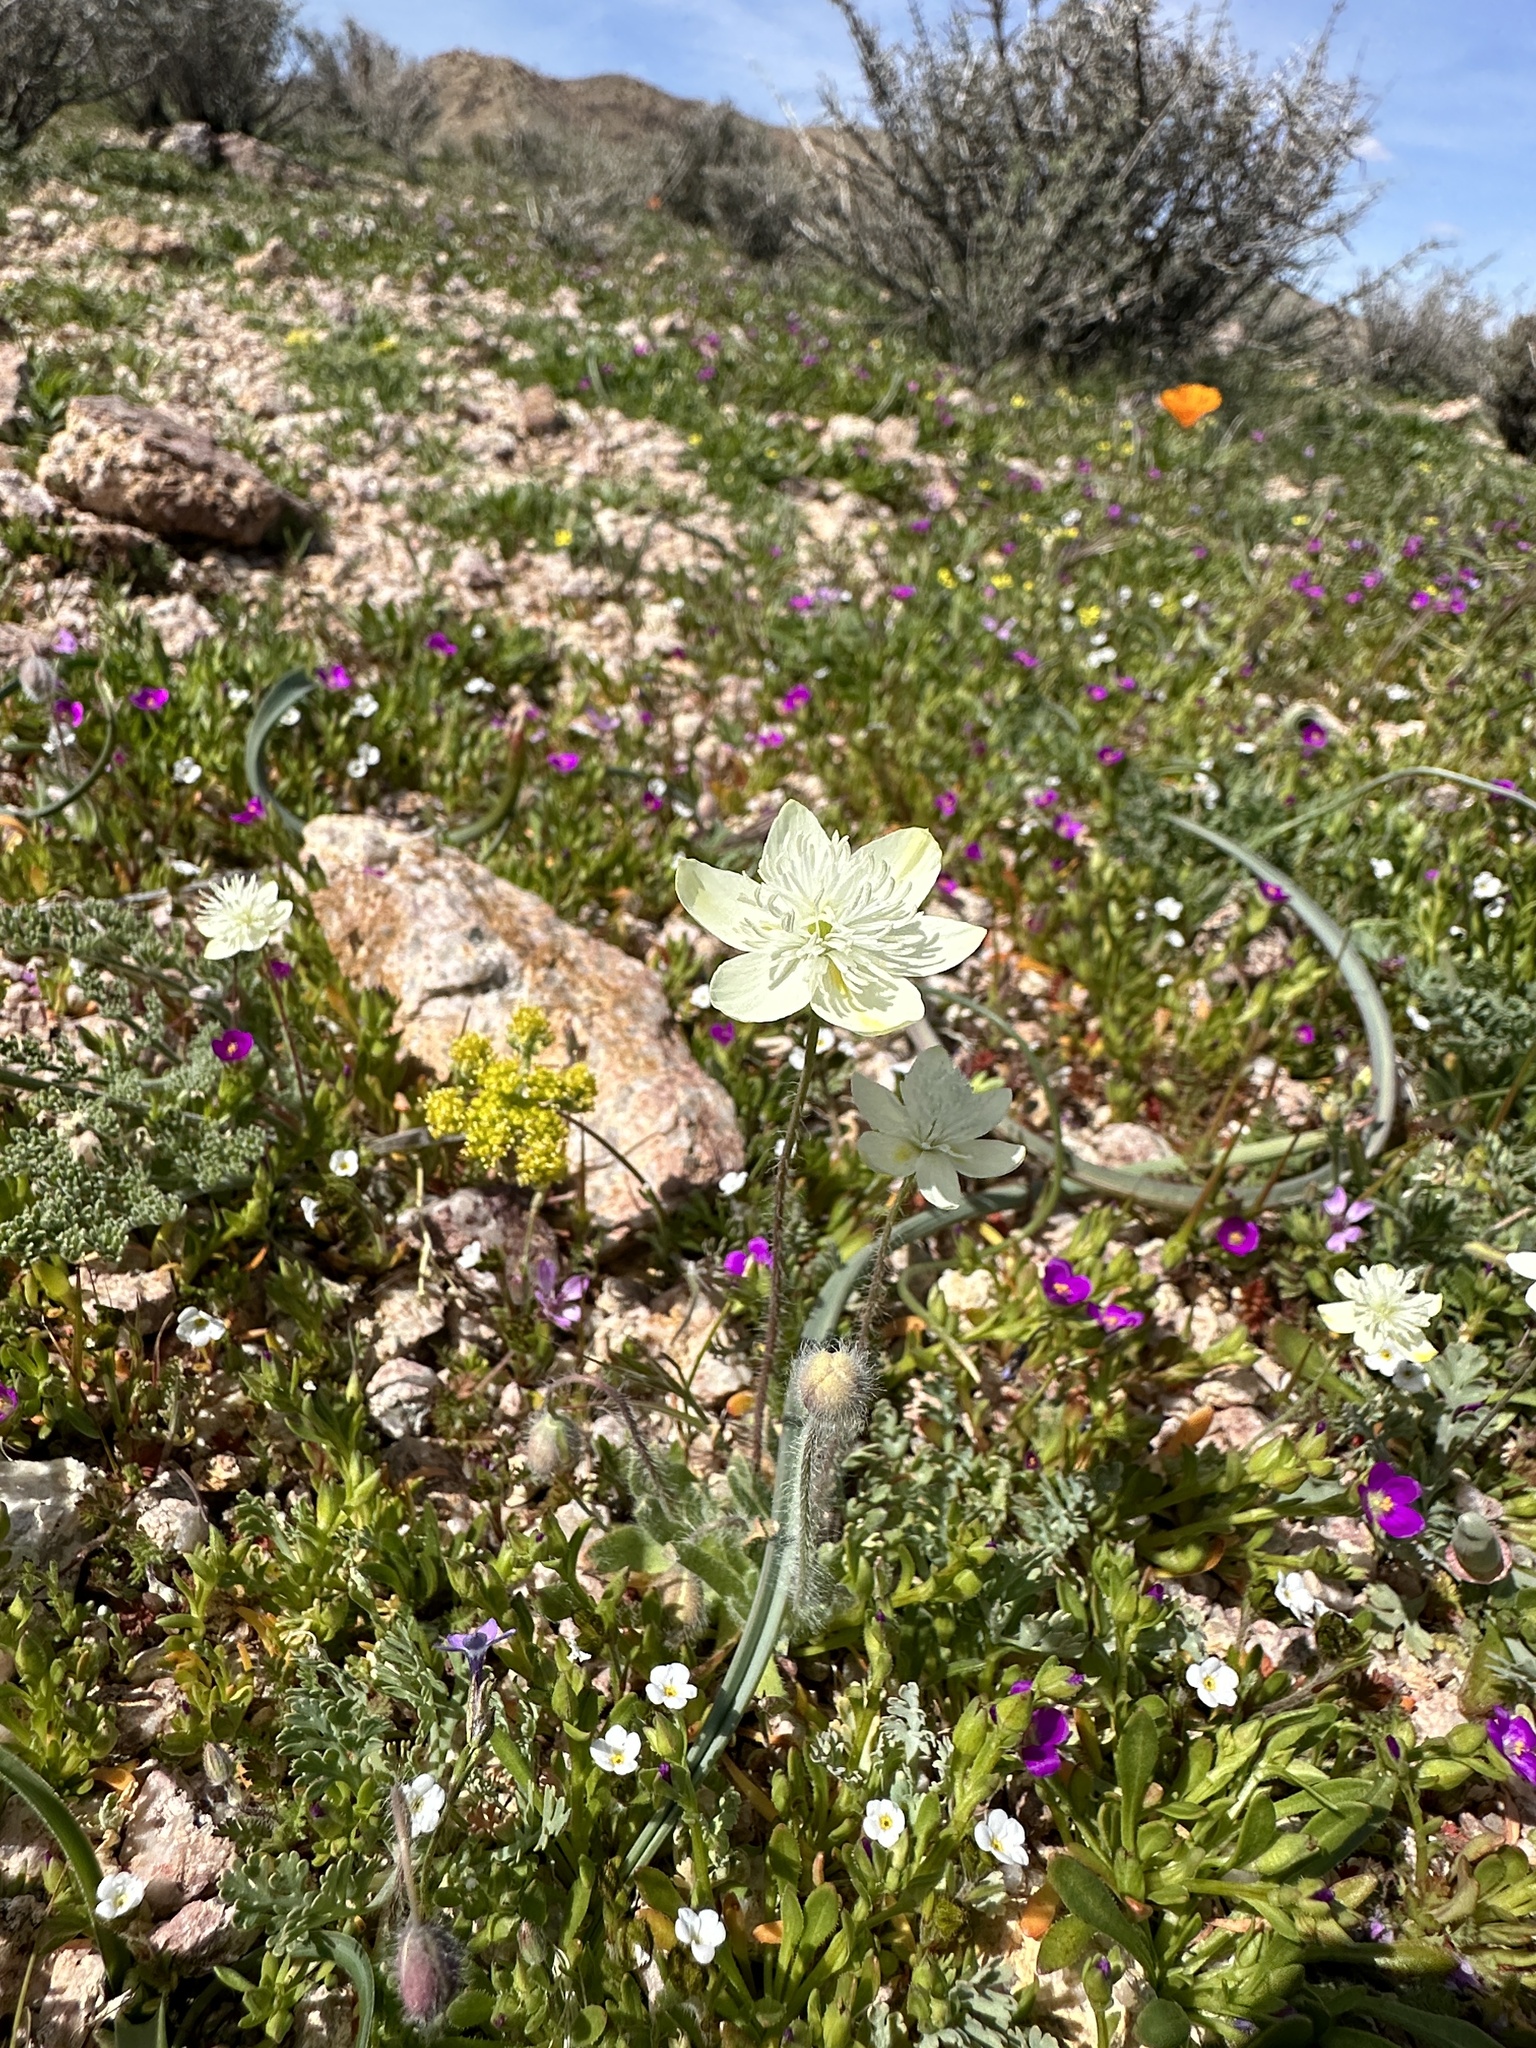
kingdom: Plantae
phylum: Tracheophyta
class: Magnoliopsida
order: Ranunculales
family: Papaveraceae
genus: Platystemon
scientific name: Platystemon californicus
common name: Cream-cups
